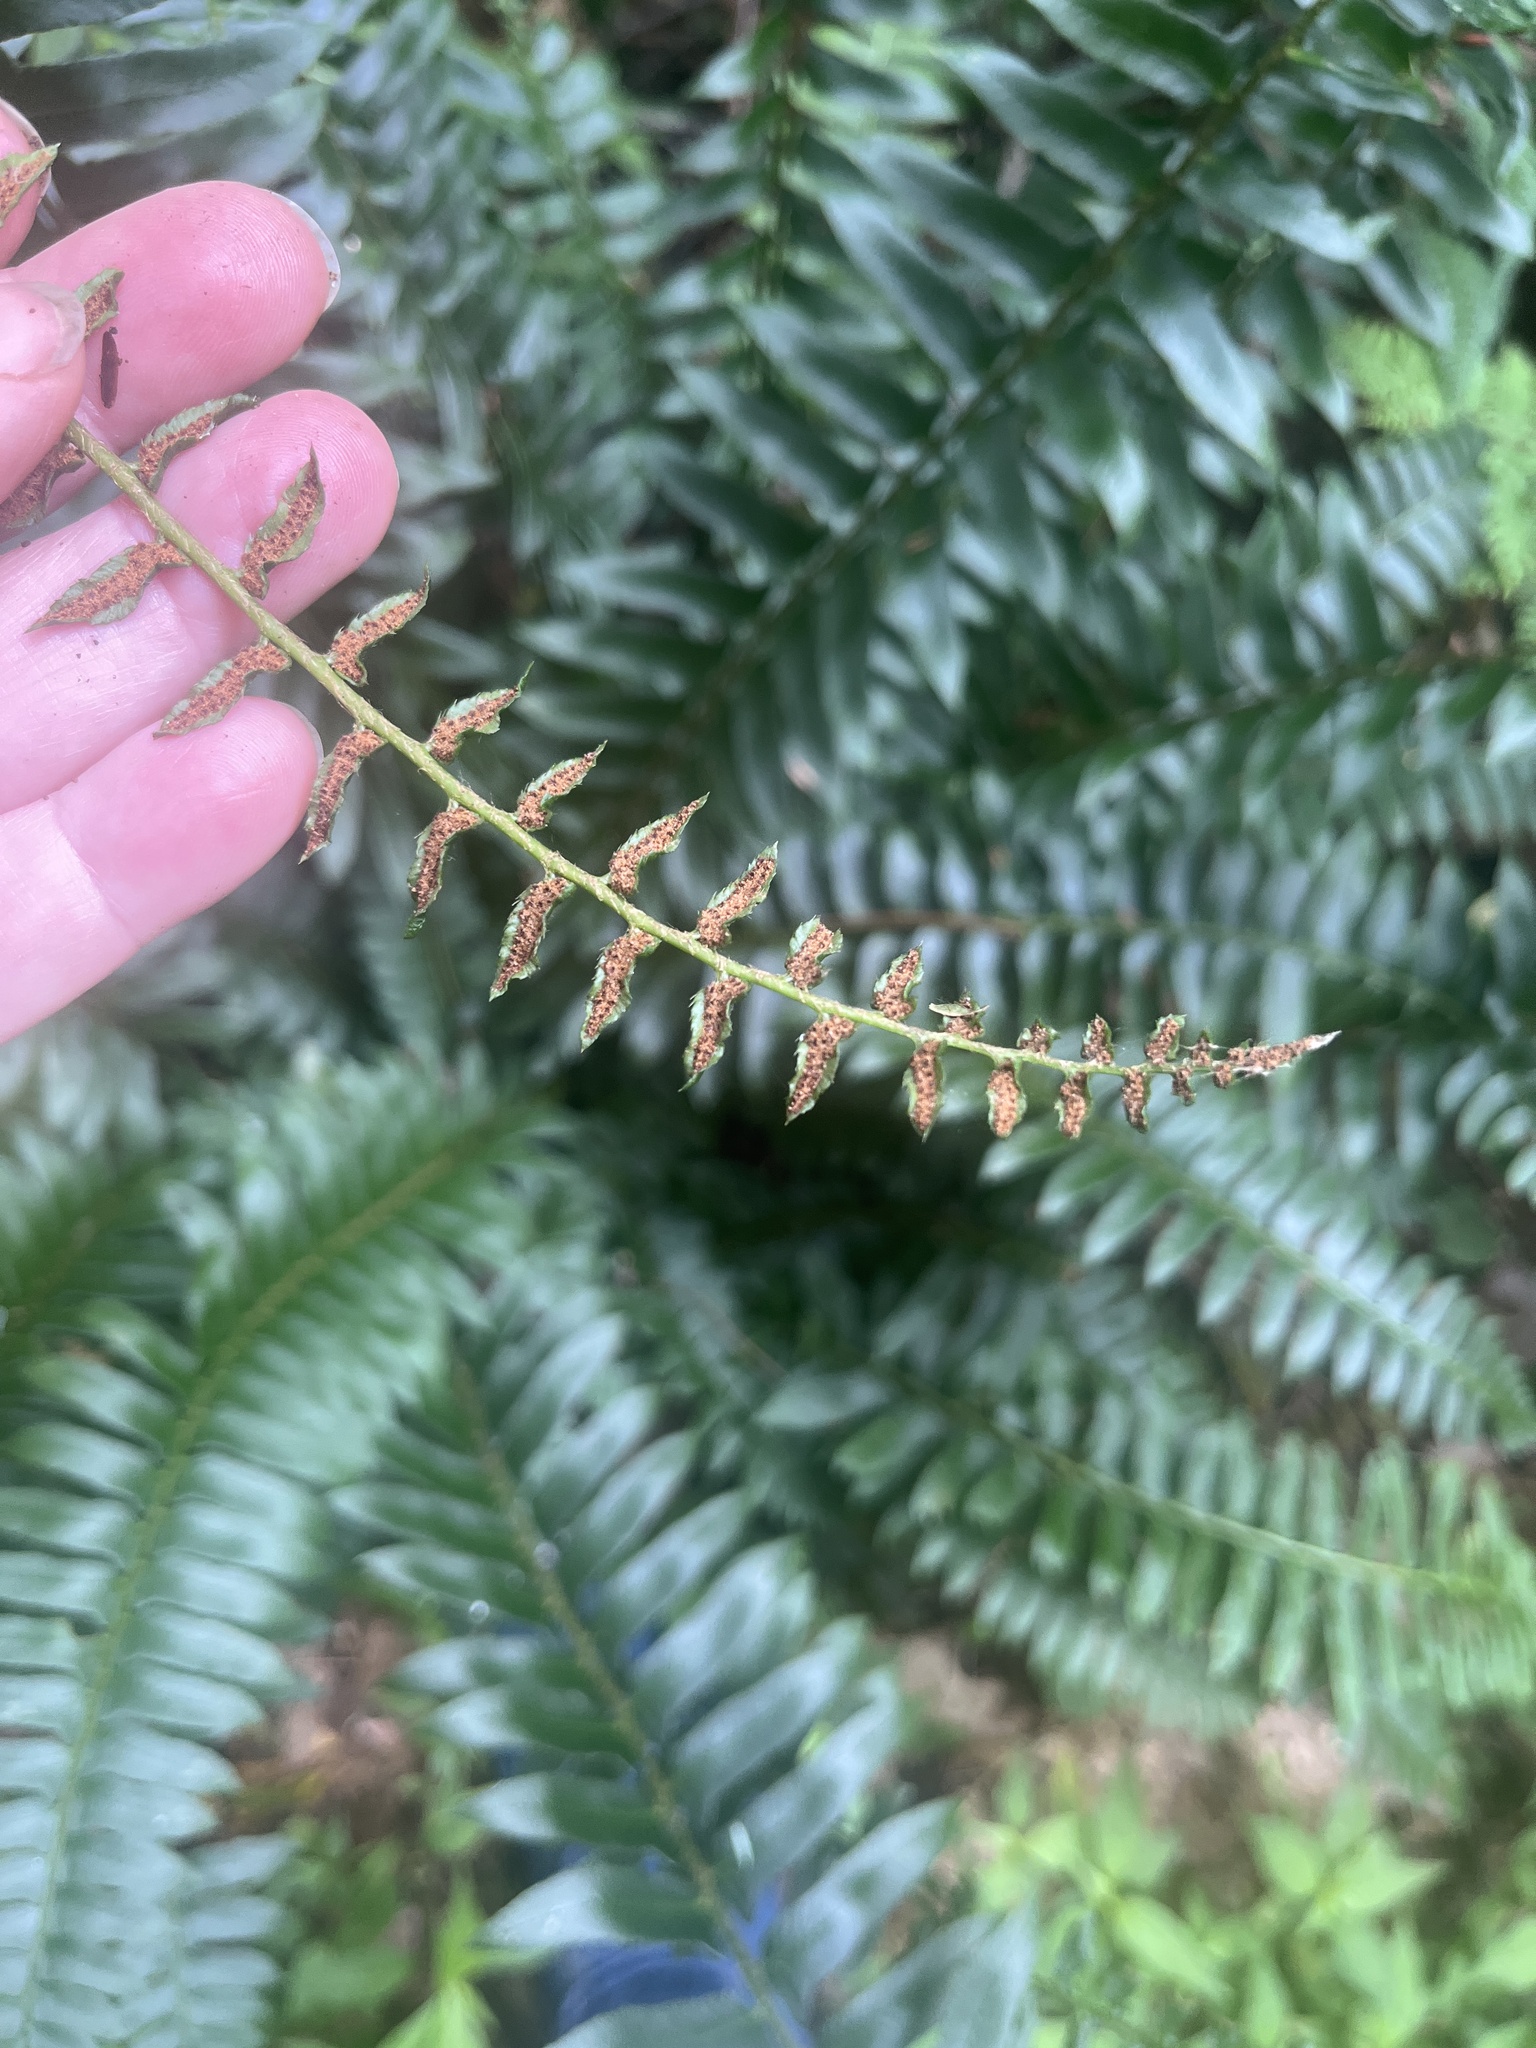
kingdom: Plantae
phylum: Tracheophyta
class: Polypodiopsida
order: Polypodiales
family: Dryopteridaceae
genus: Polystichum
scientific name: Polystichum acrostichoides
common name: Christmas fern
